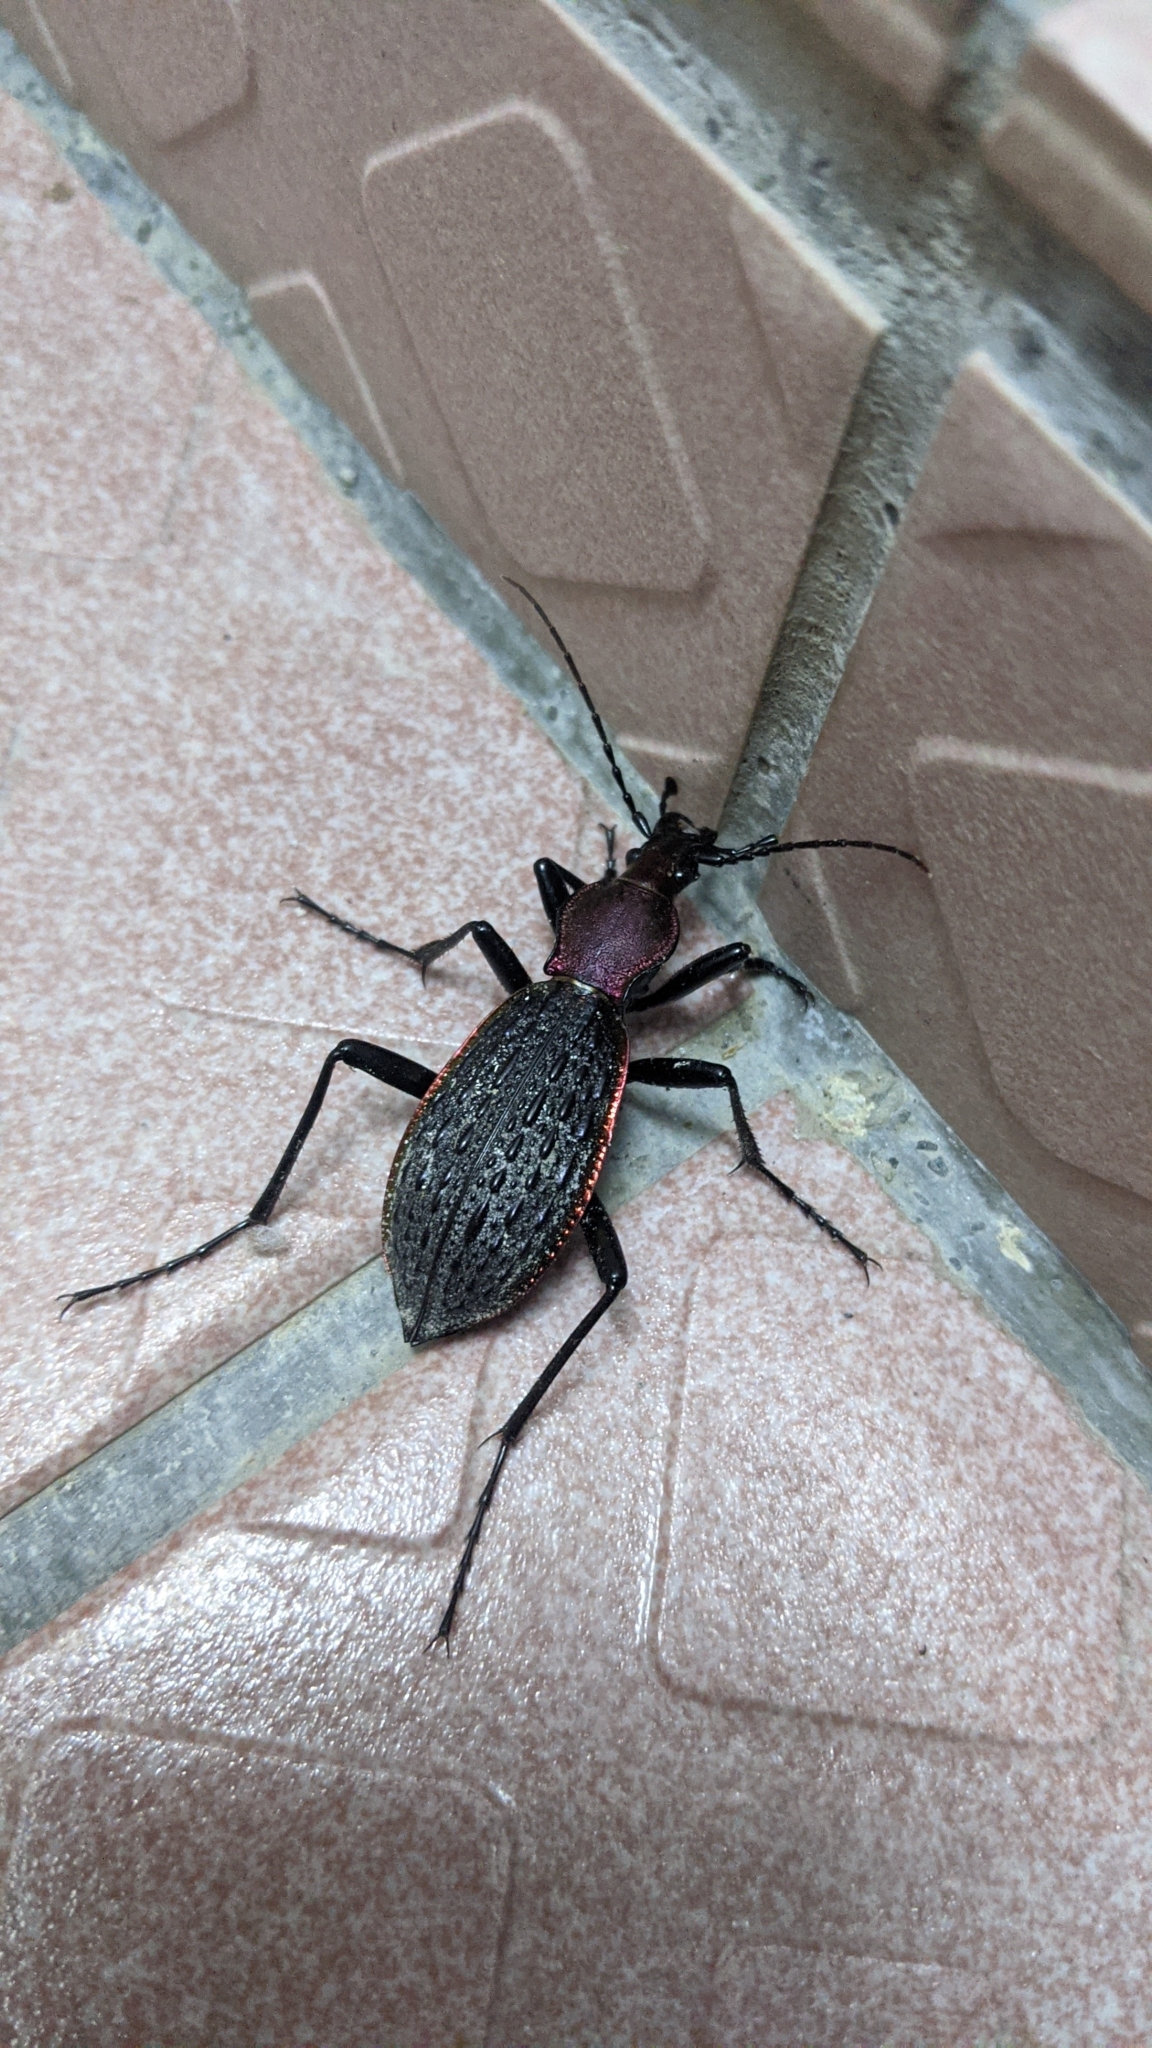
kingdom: Animalia
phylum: Arthropoda
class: Insecta
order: Coleoptera
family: Carabidae
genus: Carabus
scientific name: Carabus nankotaizanus
